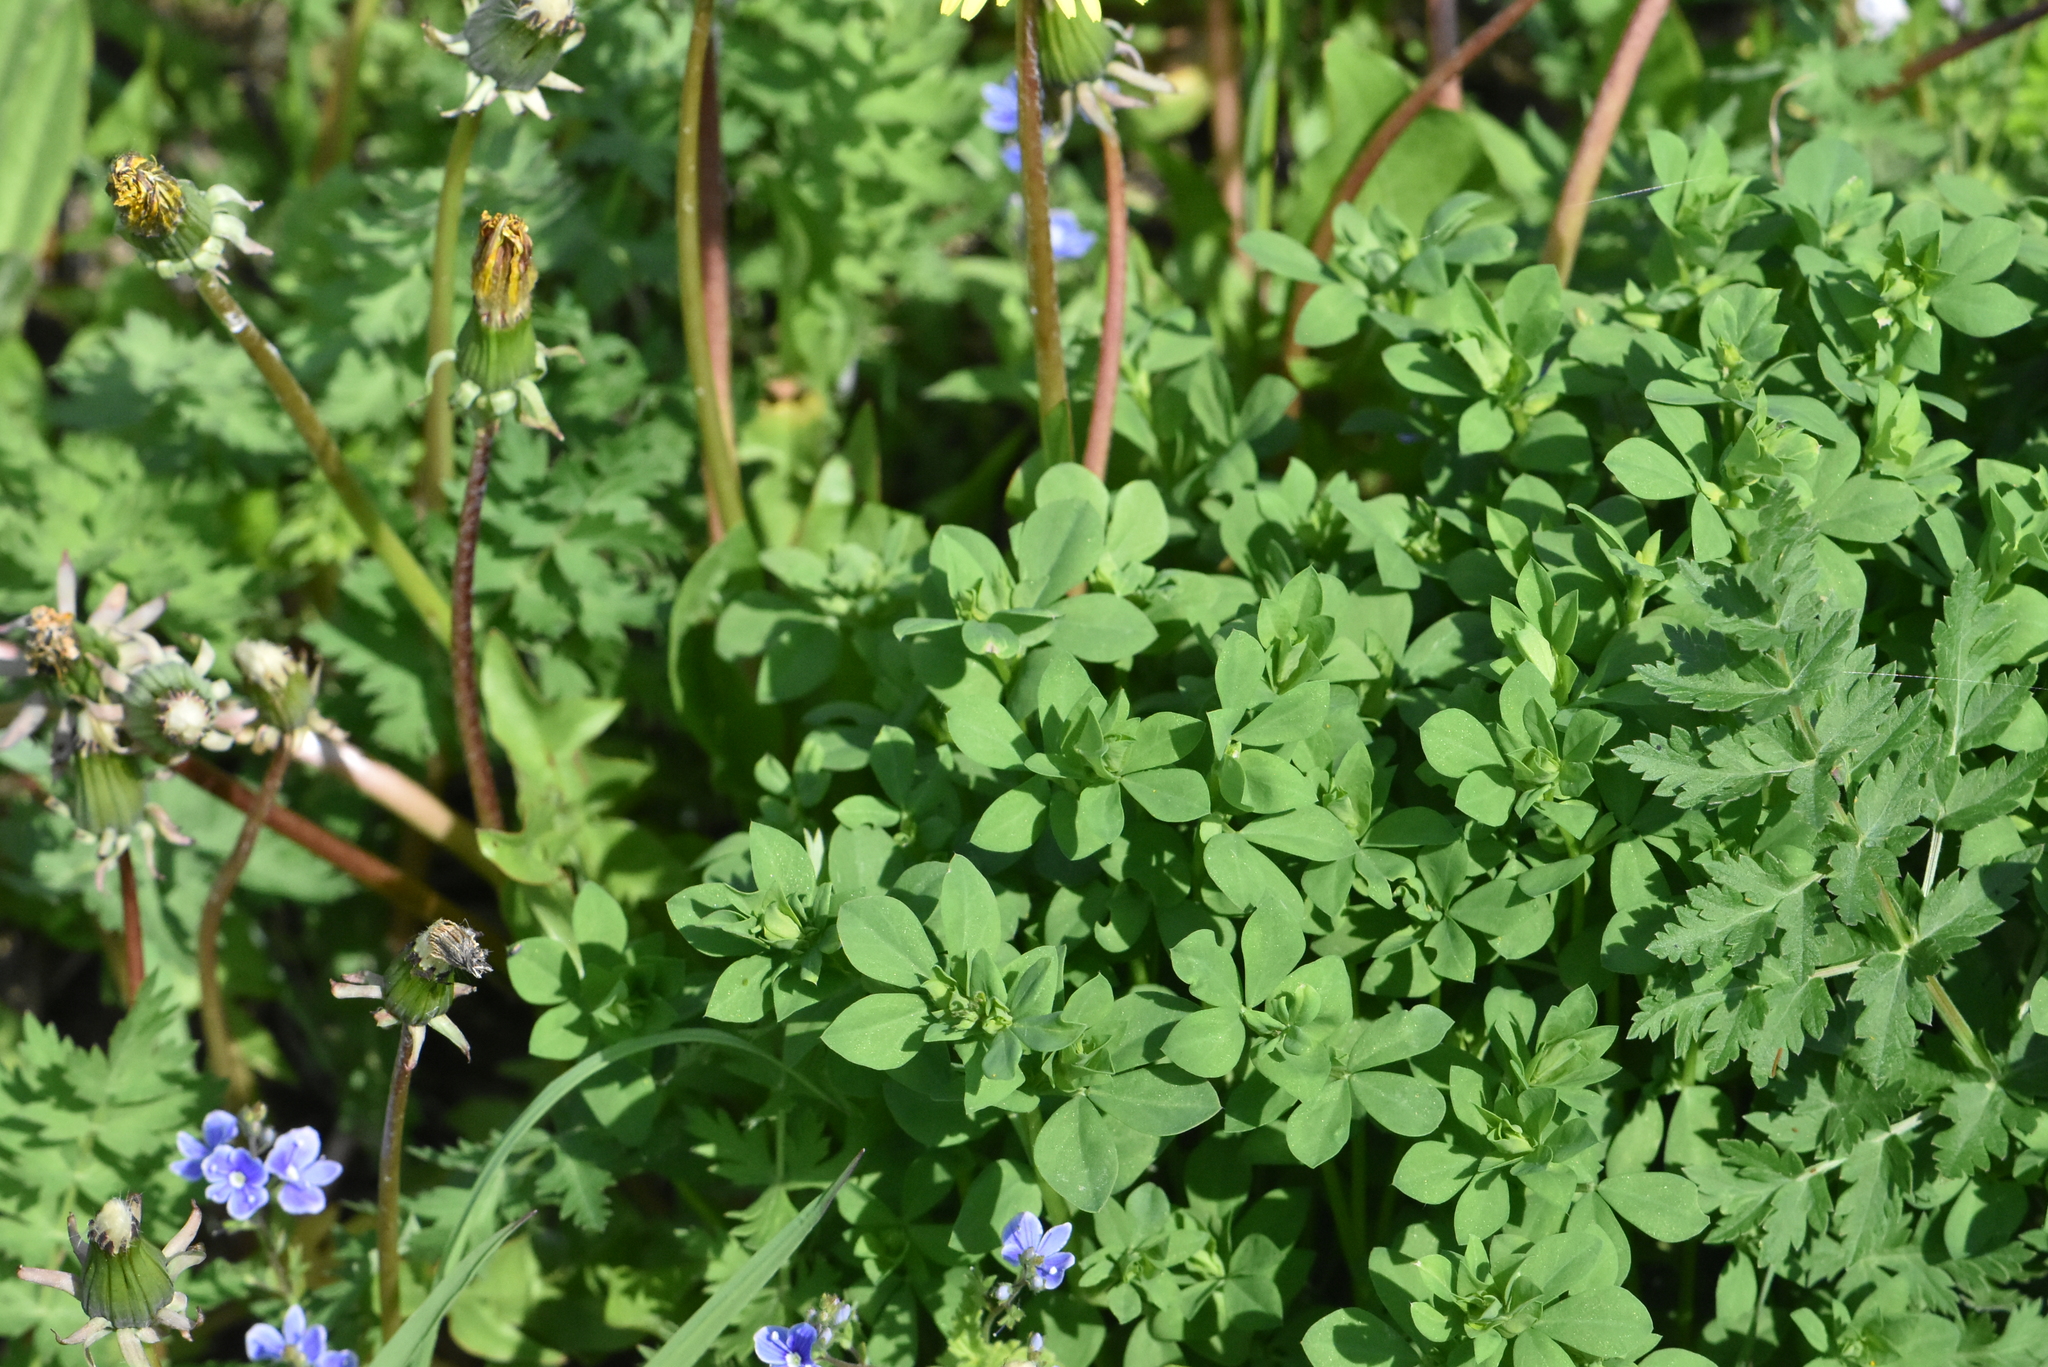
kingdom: Plantae
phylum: Tracheophyta
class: Magnoliopsida
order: Fabales
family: Fabaceae
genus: Lotus
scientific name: Lotus corniculatus
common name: Common bird's-foot-trefoil
